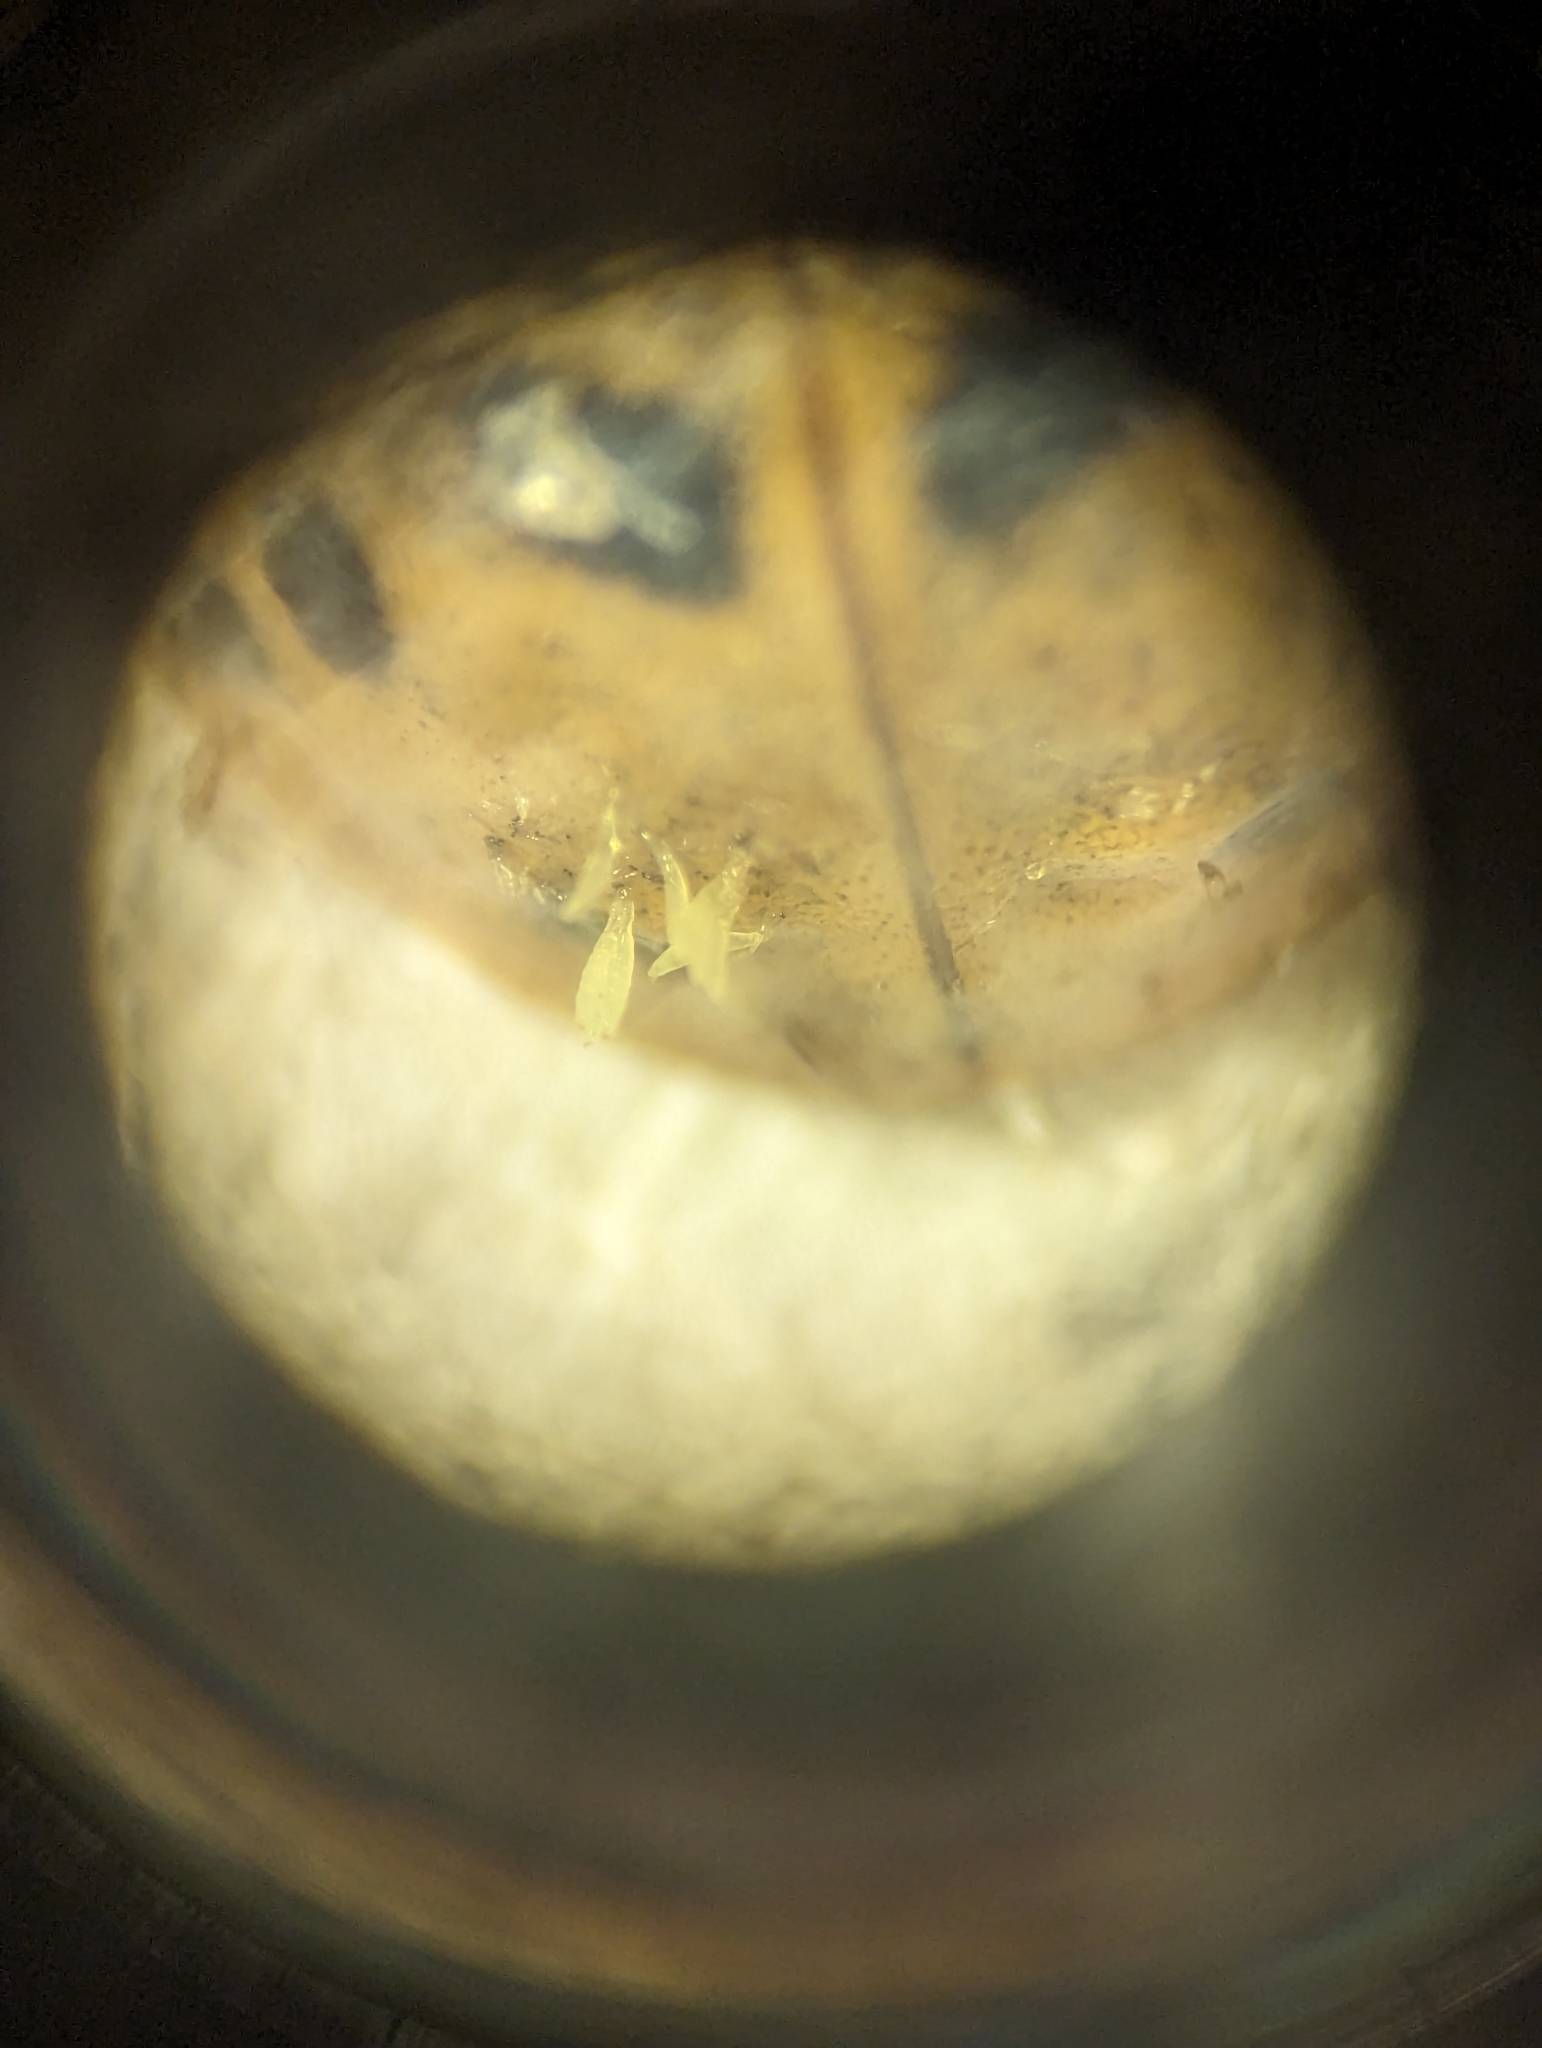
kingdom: Fungi
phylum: Ascomycota
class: Laboulbeniomycetes
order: Laboulbeniales
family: Laboulbeniaceae
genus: Hesperomyces
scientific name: Hesperomyces harmoniae
